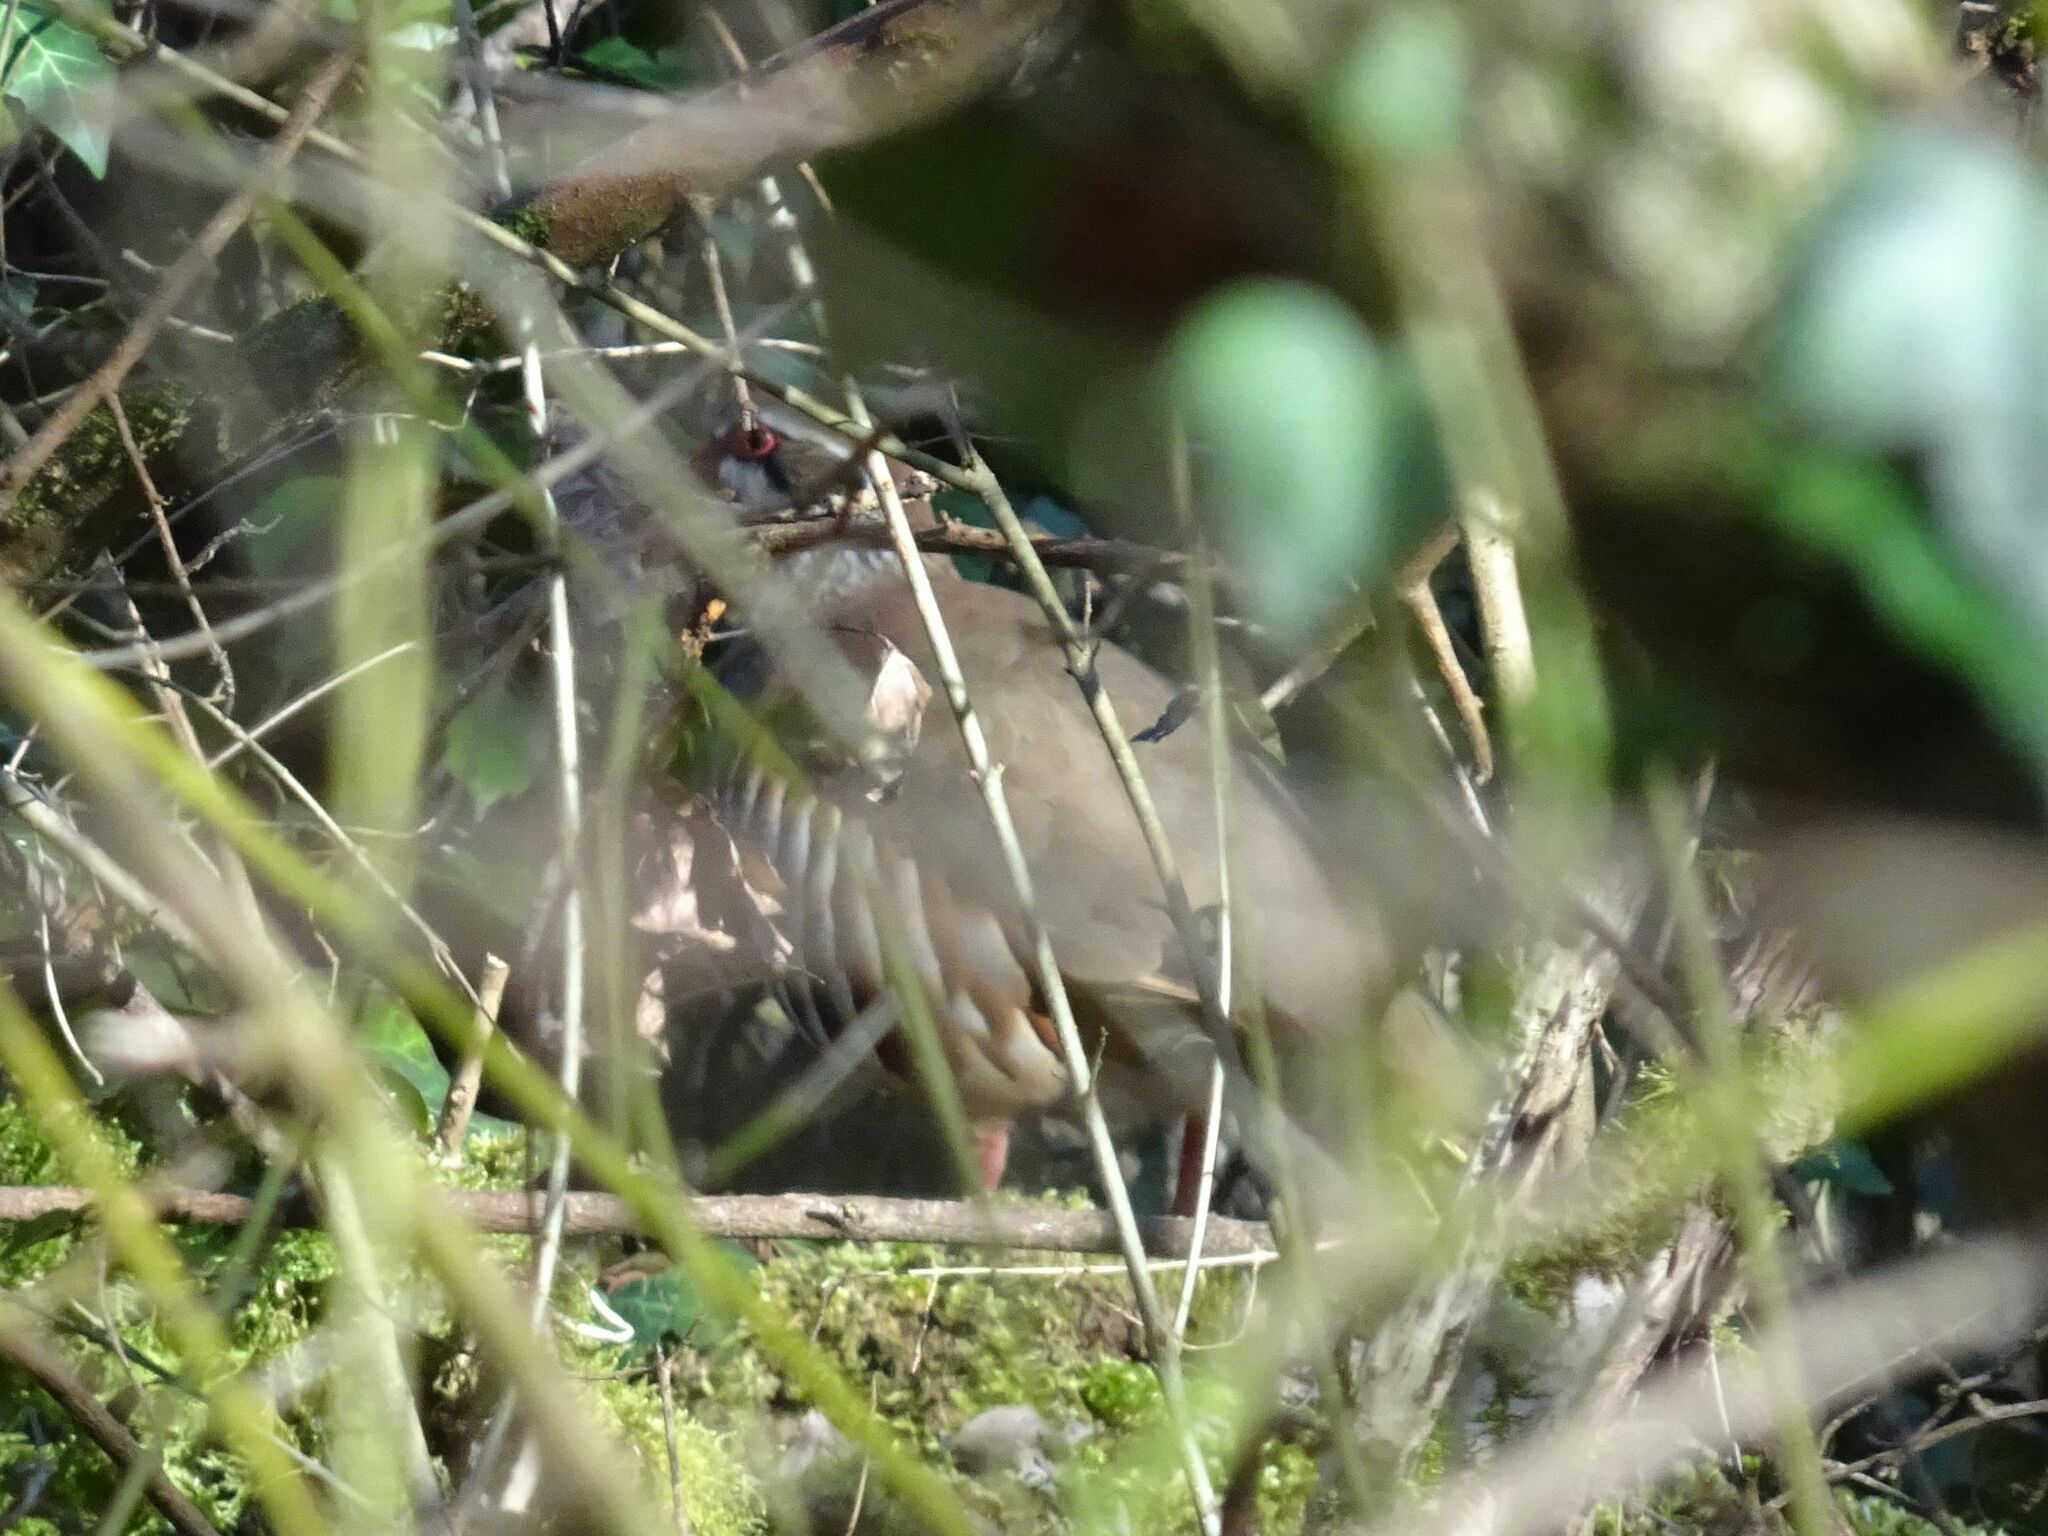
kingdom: Animalia
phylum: Chordata
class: Aves
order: Galliformes
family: Phasianidae
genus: Alectoris
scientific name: Alectoris rufa
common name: Red-legged partridge
